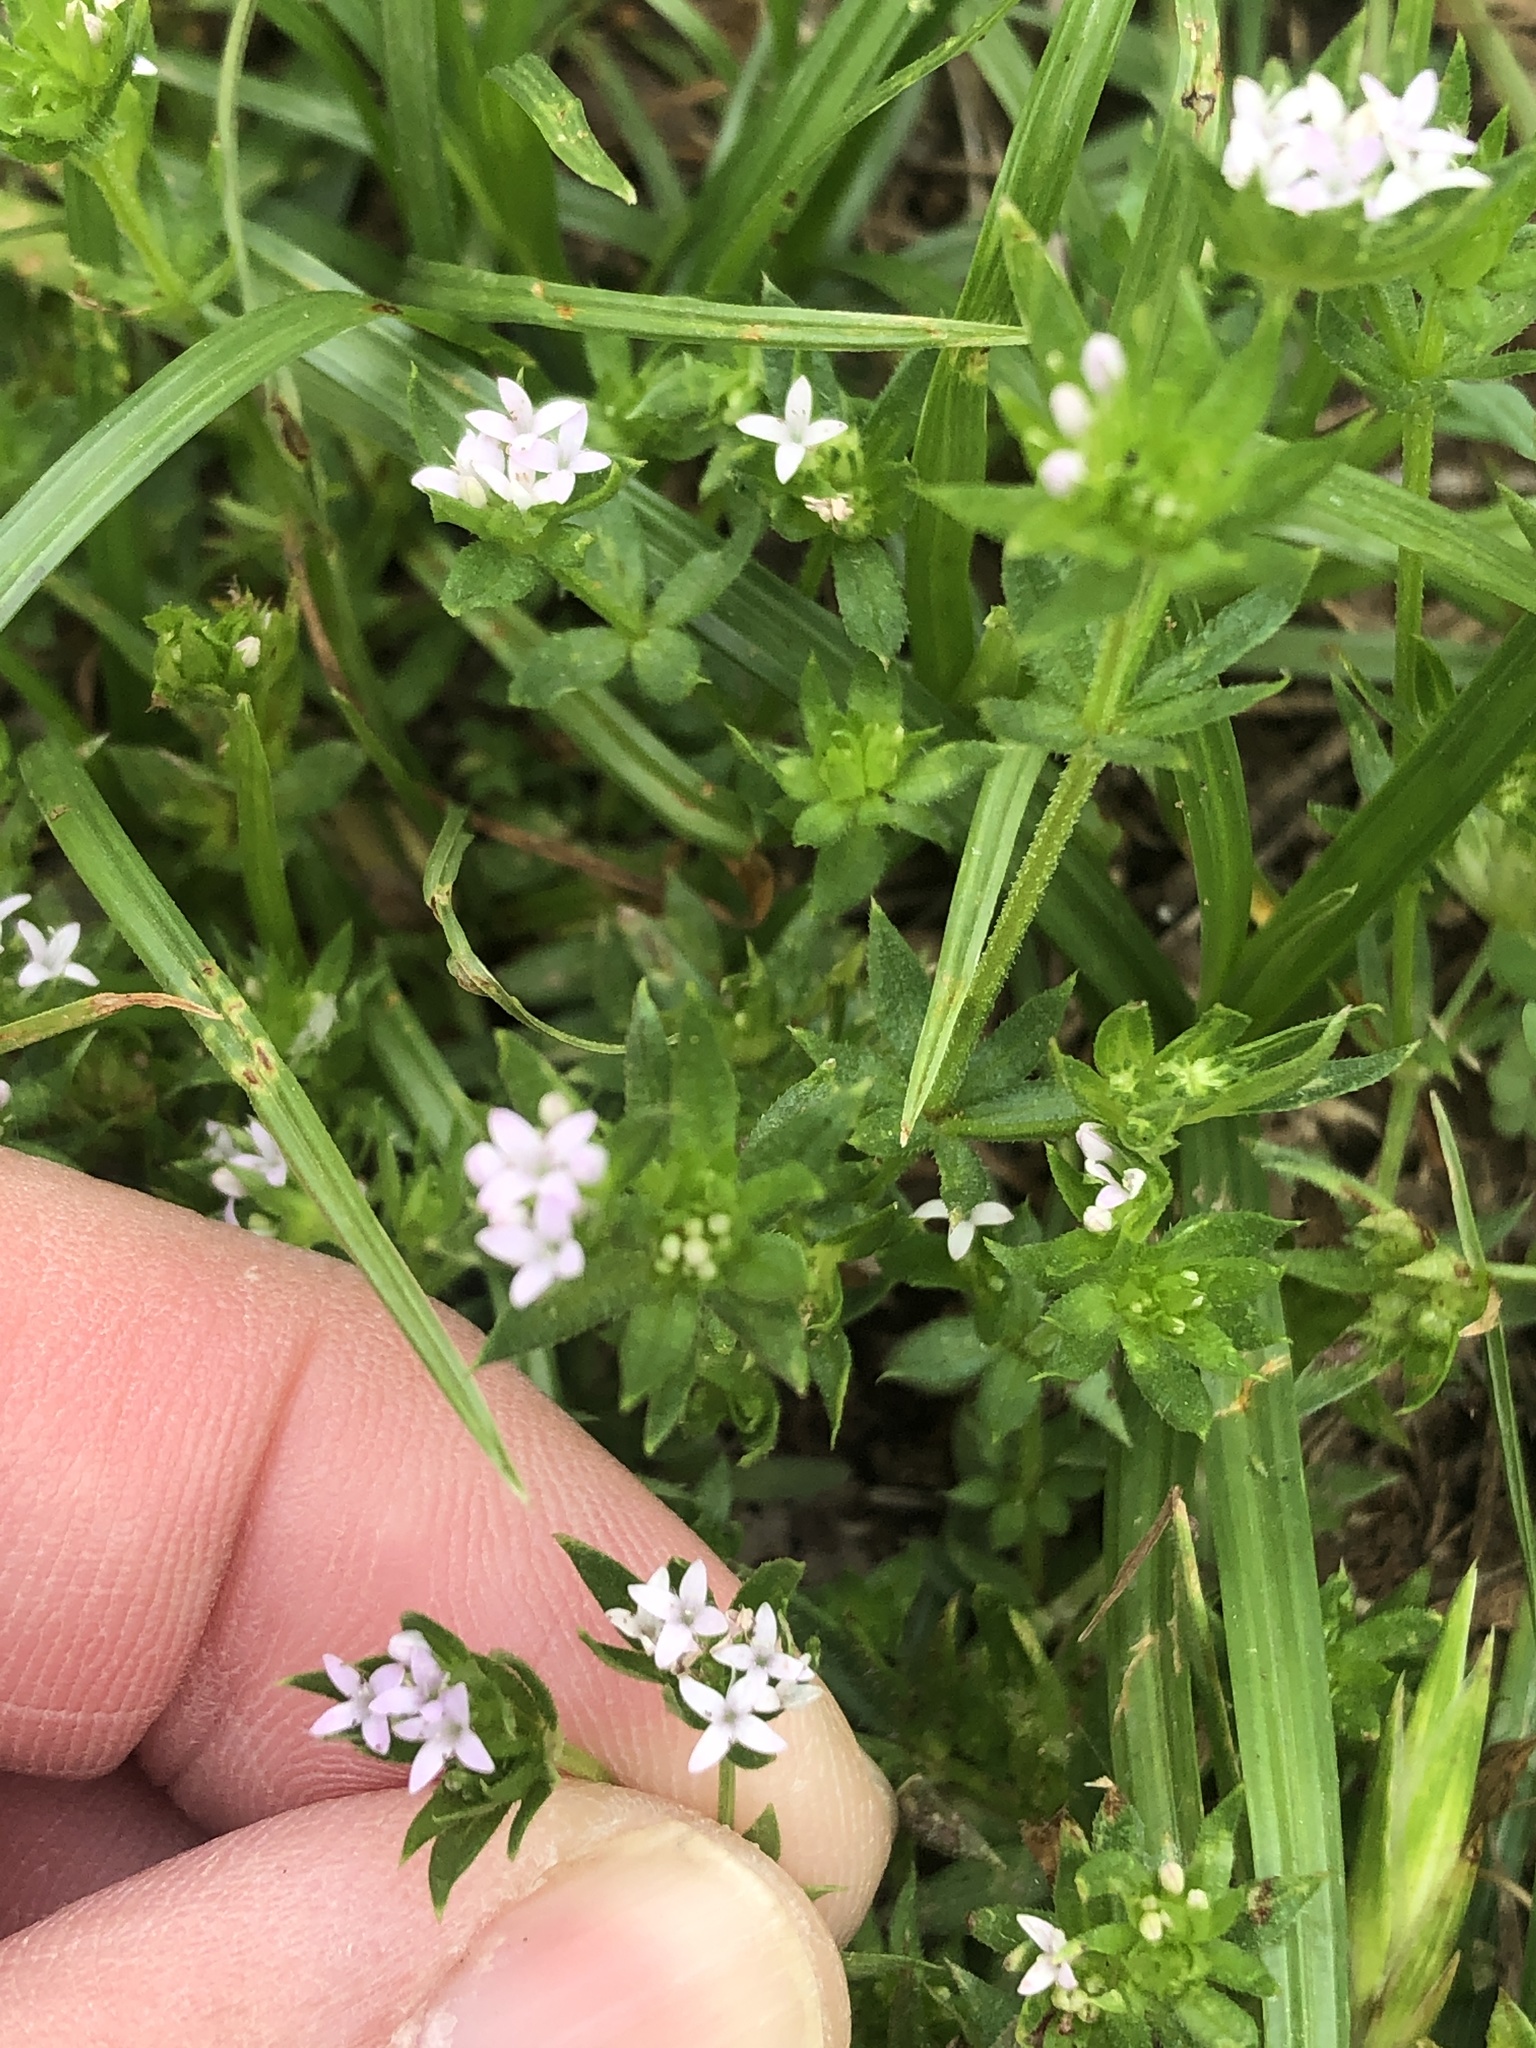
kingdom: Plantae
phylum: Tracheophyta
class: Magnoliopsida
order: Gentianales
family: Rubiaceae
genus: Sherardia
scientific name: Sherardia arvensis
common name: Field madder
